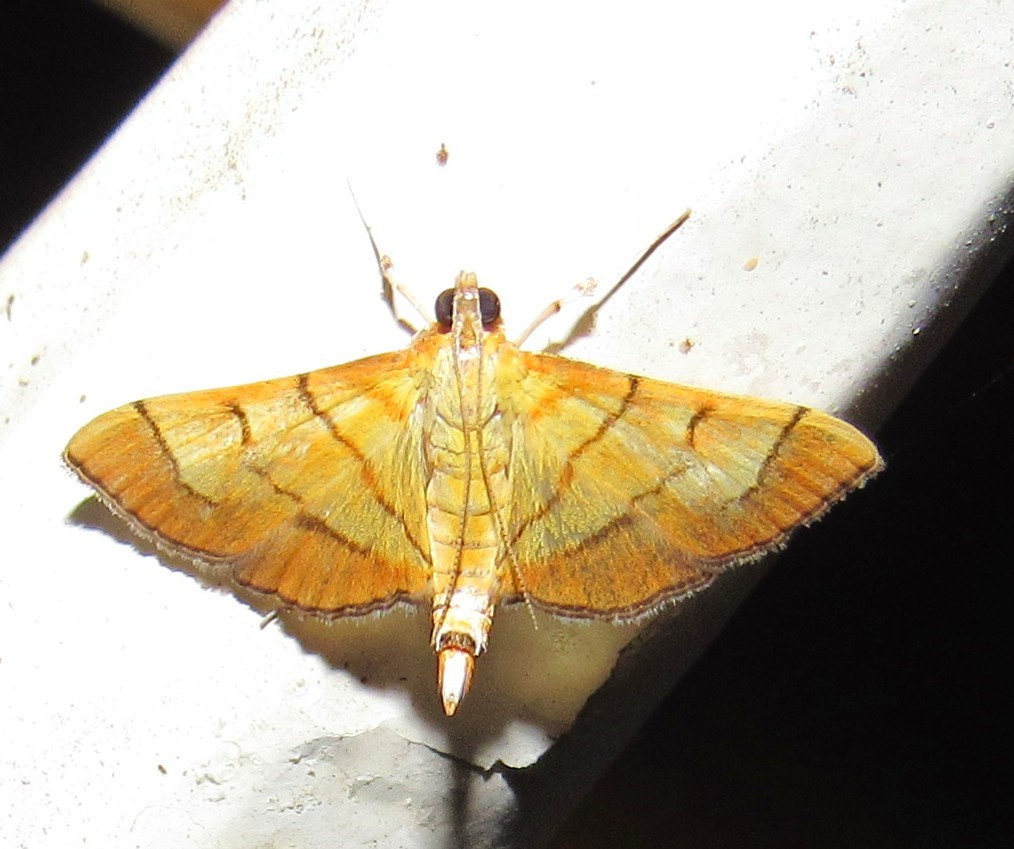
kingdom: Animalia
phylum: Arthropoda
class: Insecta
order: Lepidoptera
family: Crambidae
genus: Salbia
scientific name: Salbia haemorrhoidalis
